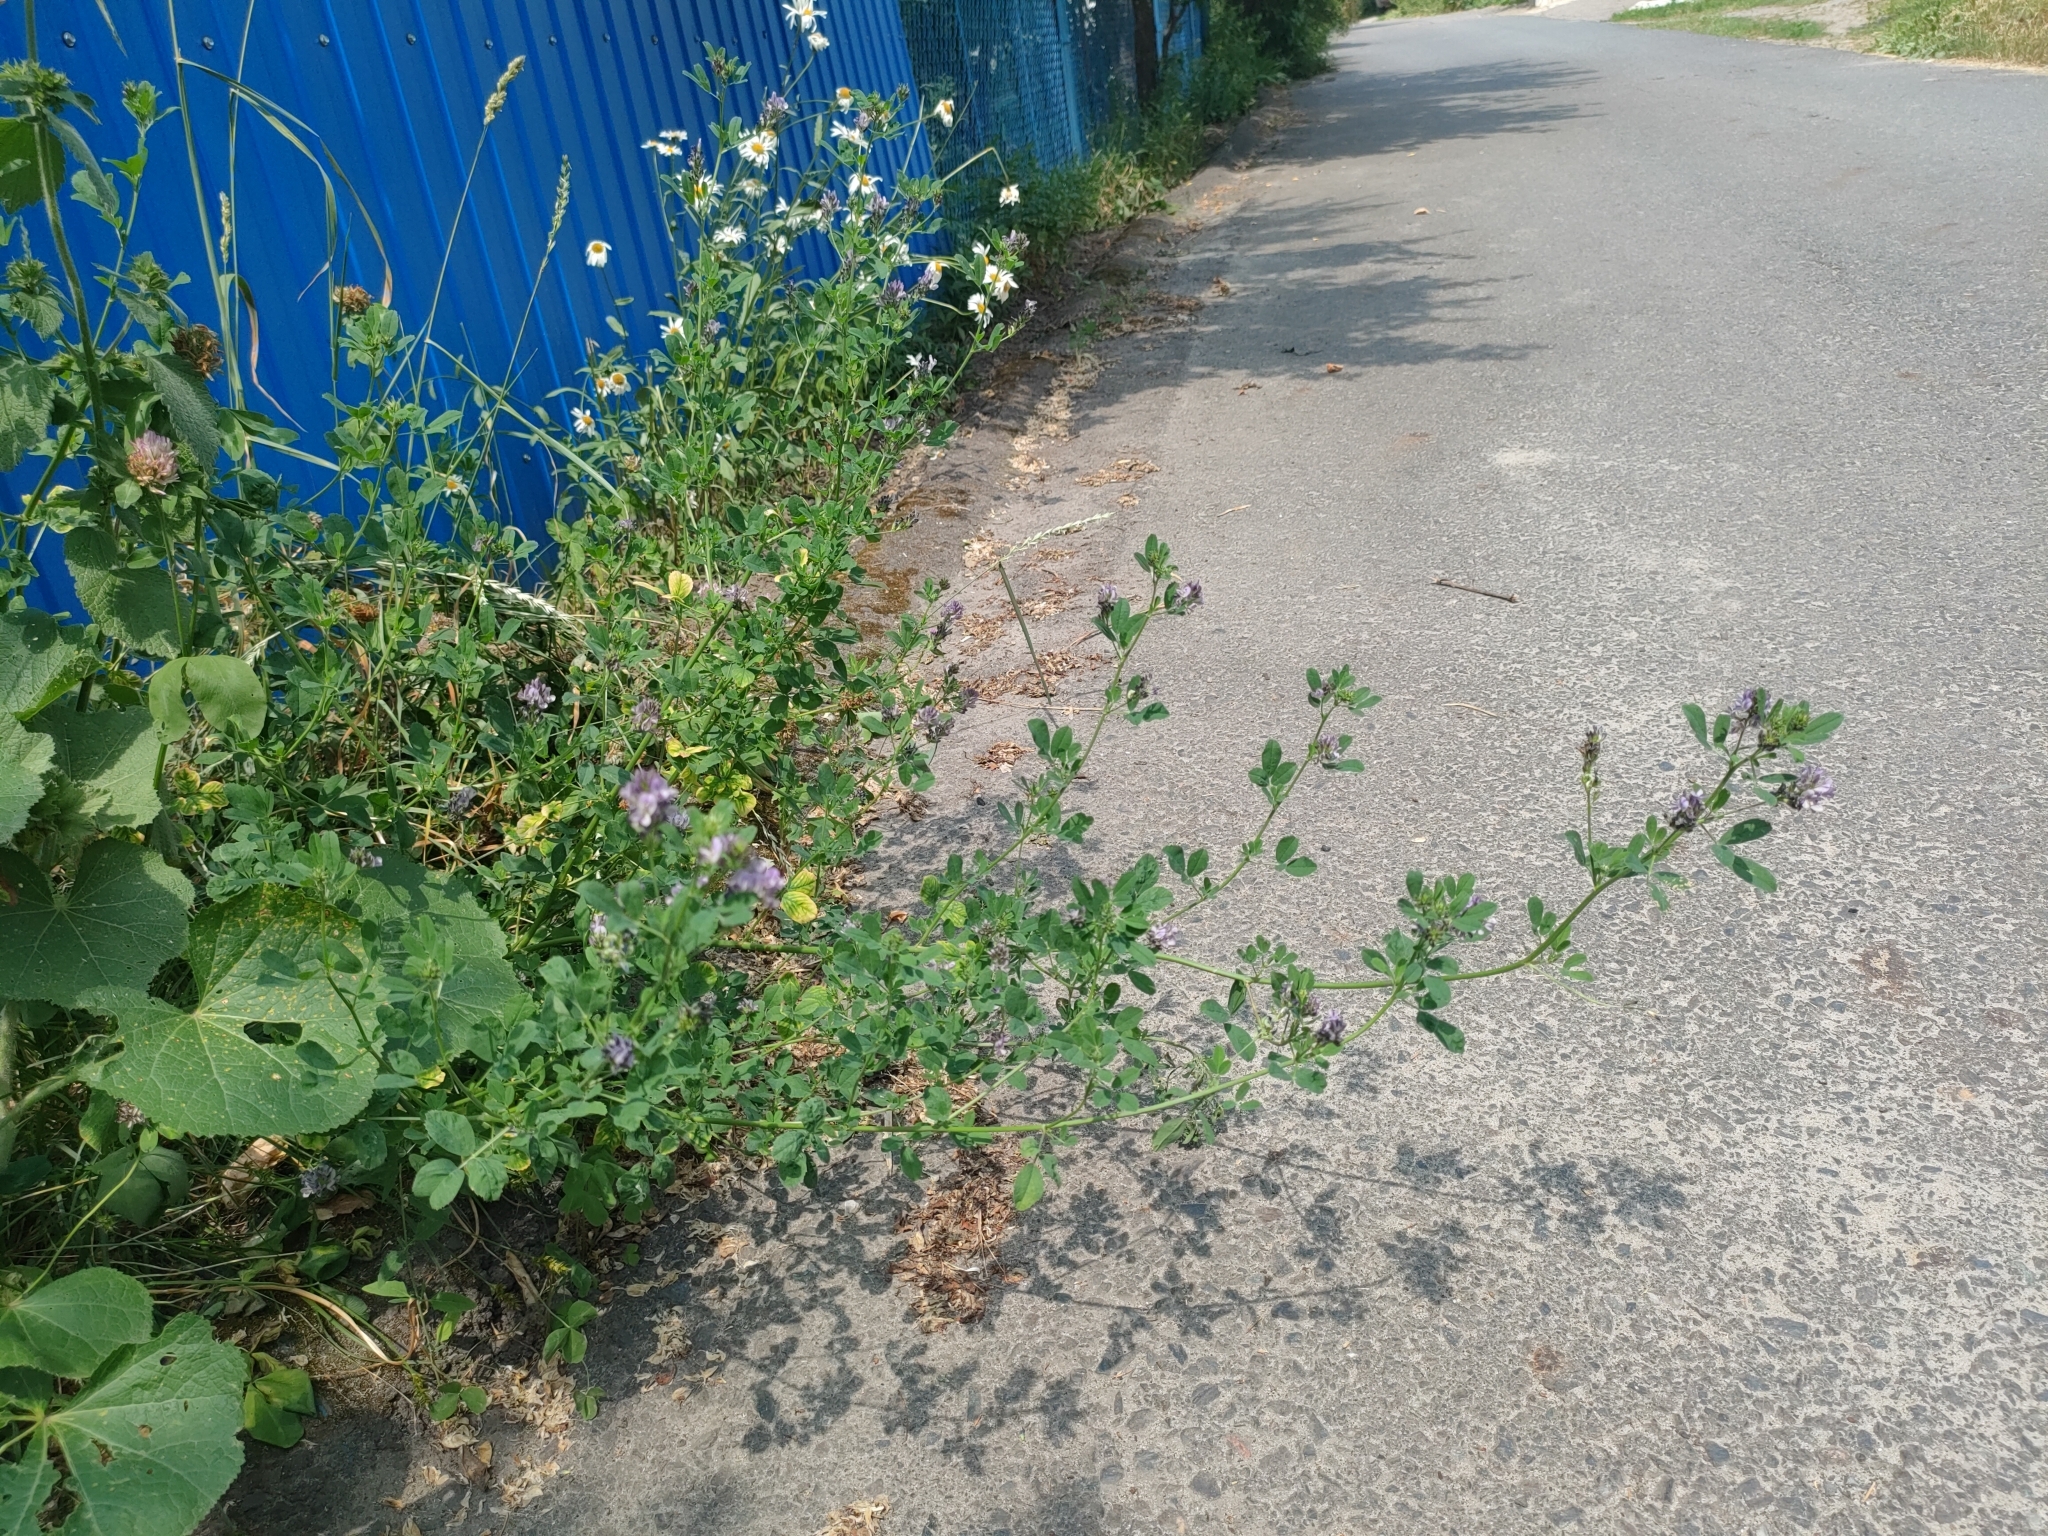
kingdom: Plantae
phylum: Tracheophyta
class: Magnoliopsida
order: Fabales
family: Fabaceae
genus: Medicago
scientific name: Medicago varia
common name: Sand lucerne
